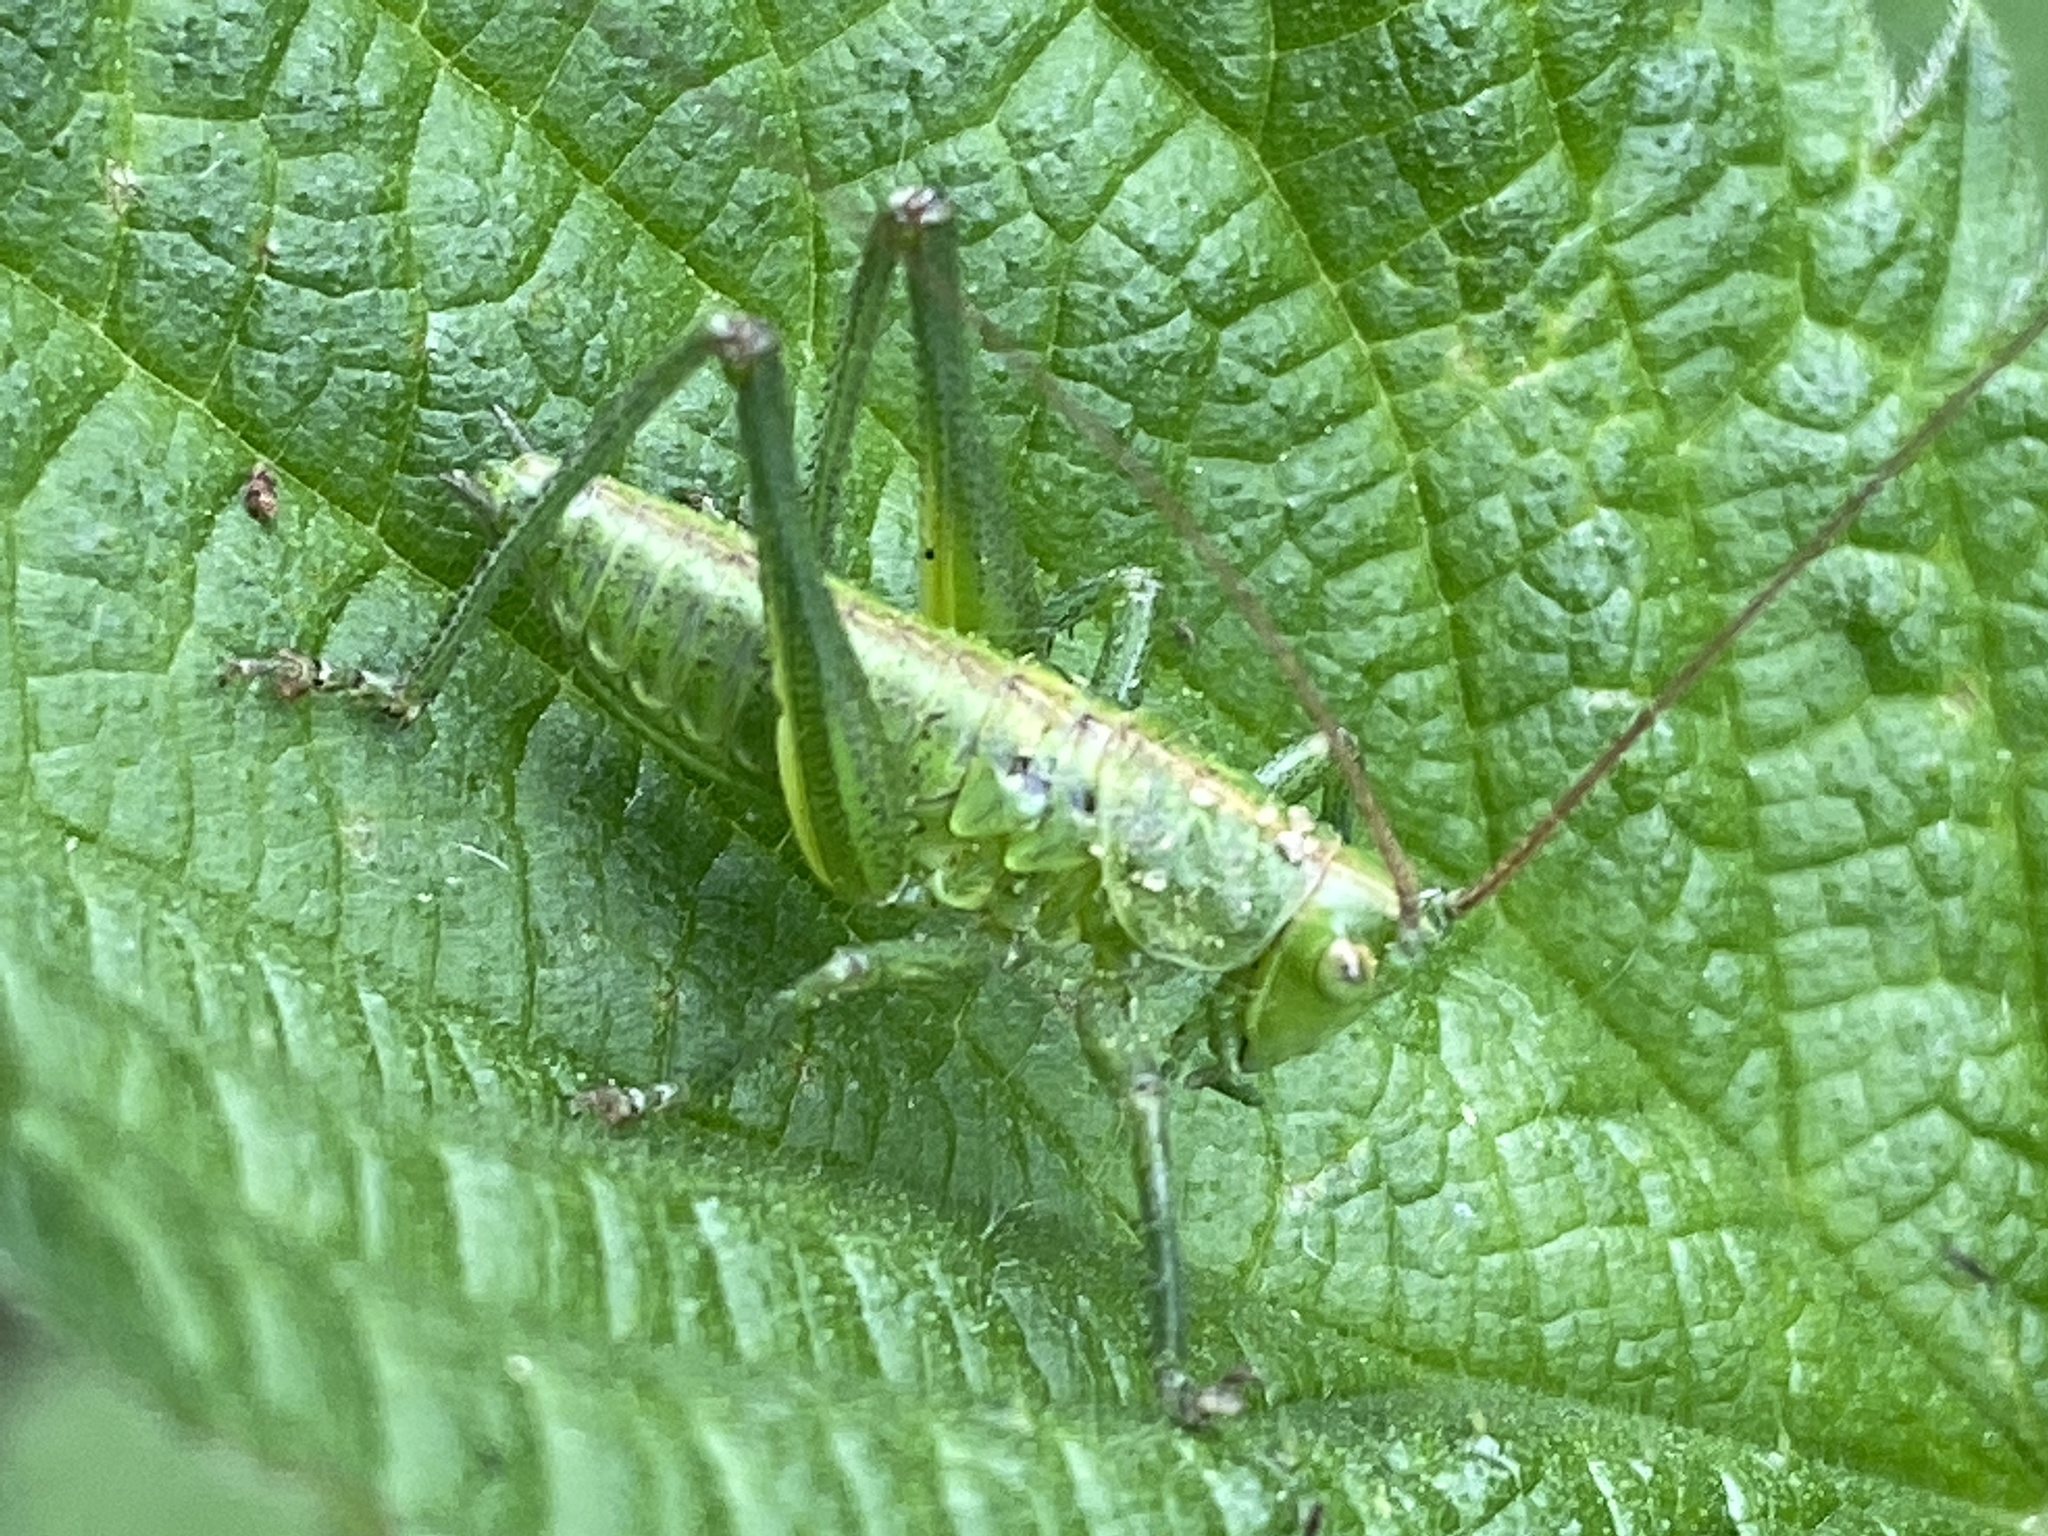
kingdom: Animalia
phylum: Arthropoda
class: Insecta
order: Orthoptera
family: Tettigoniidae
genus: Tettigonia
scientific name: Tettigonia viridissima
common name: Great green bush-cricket
